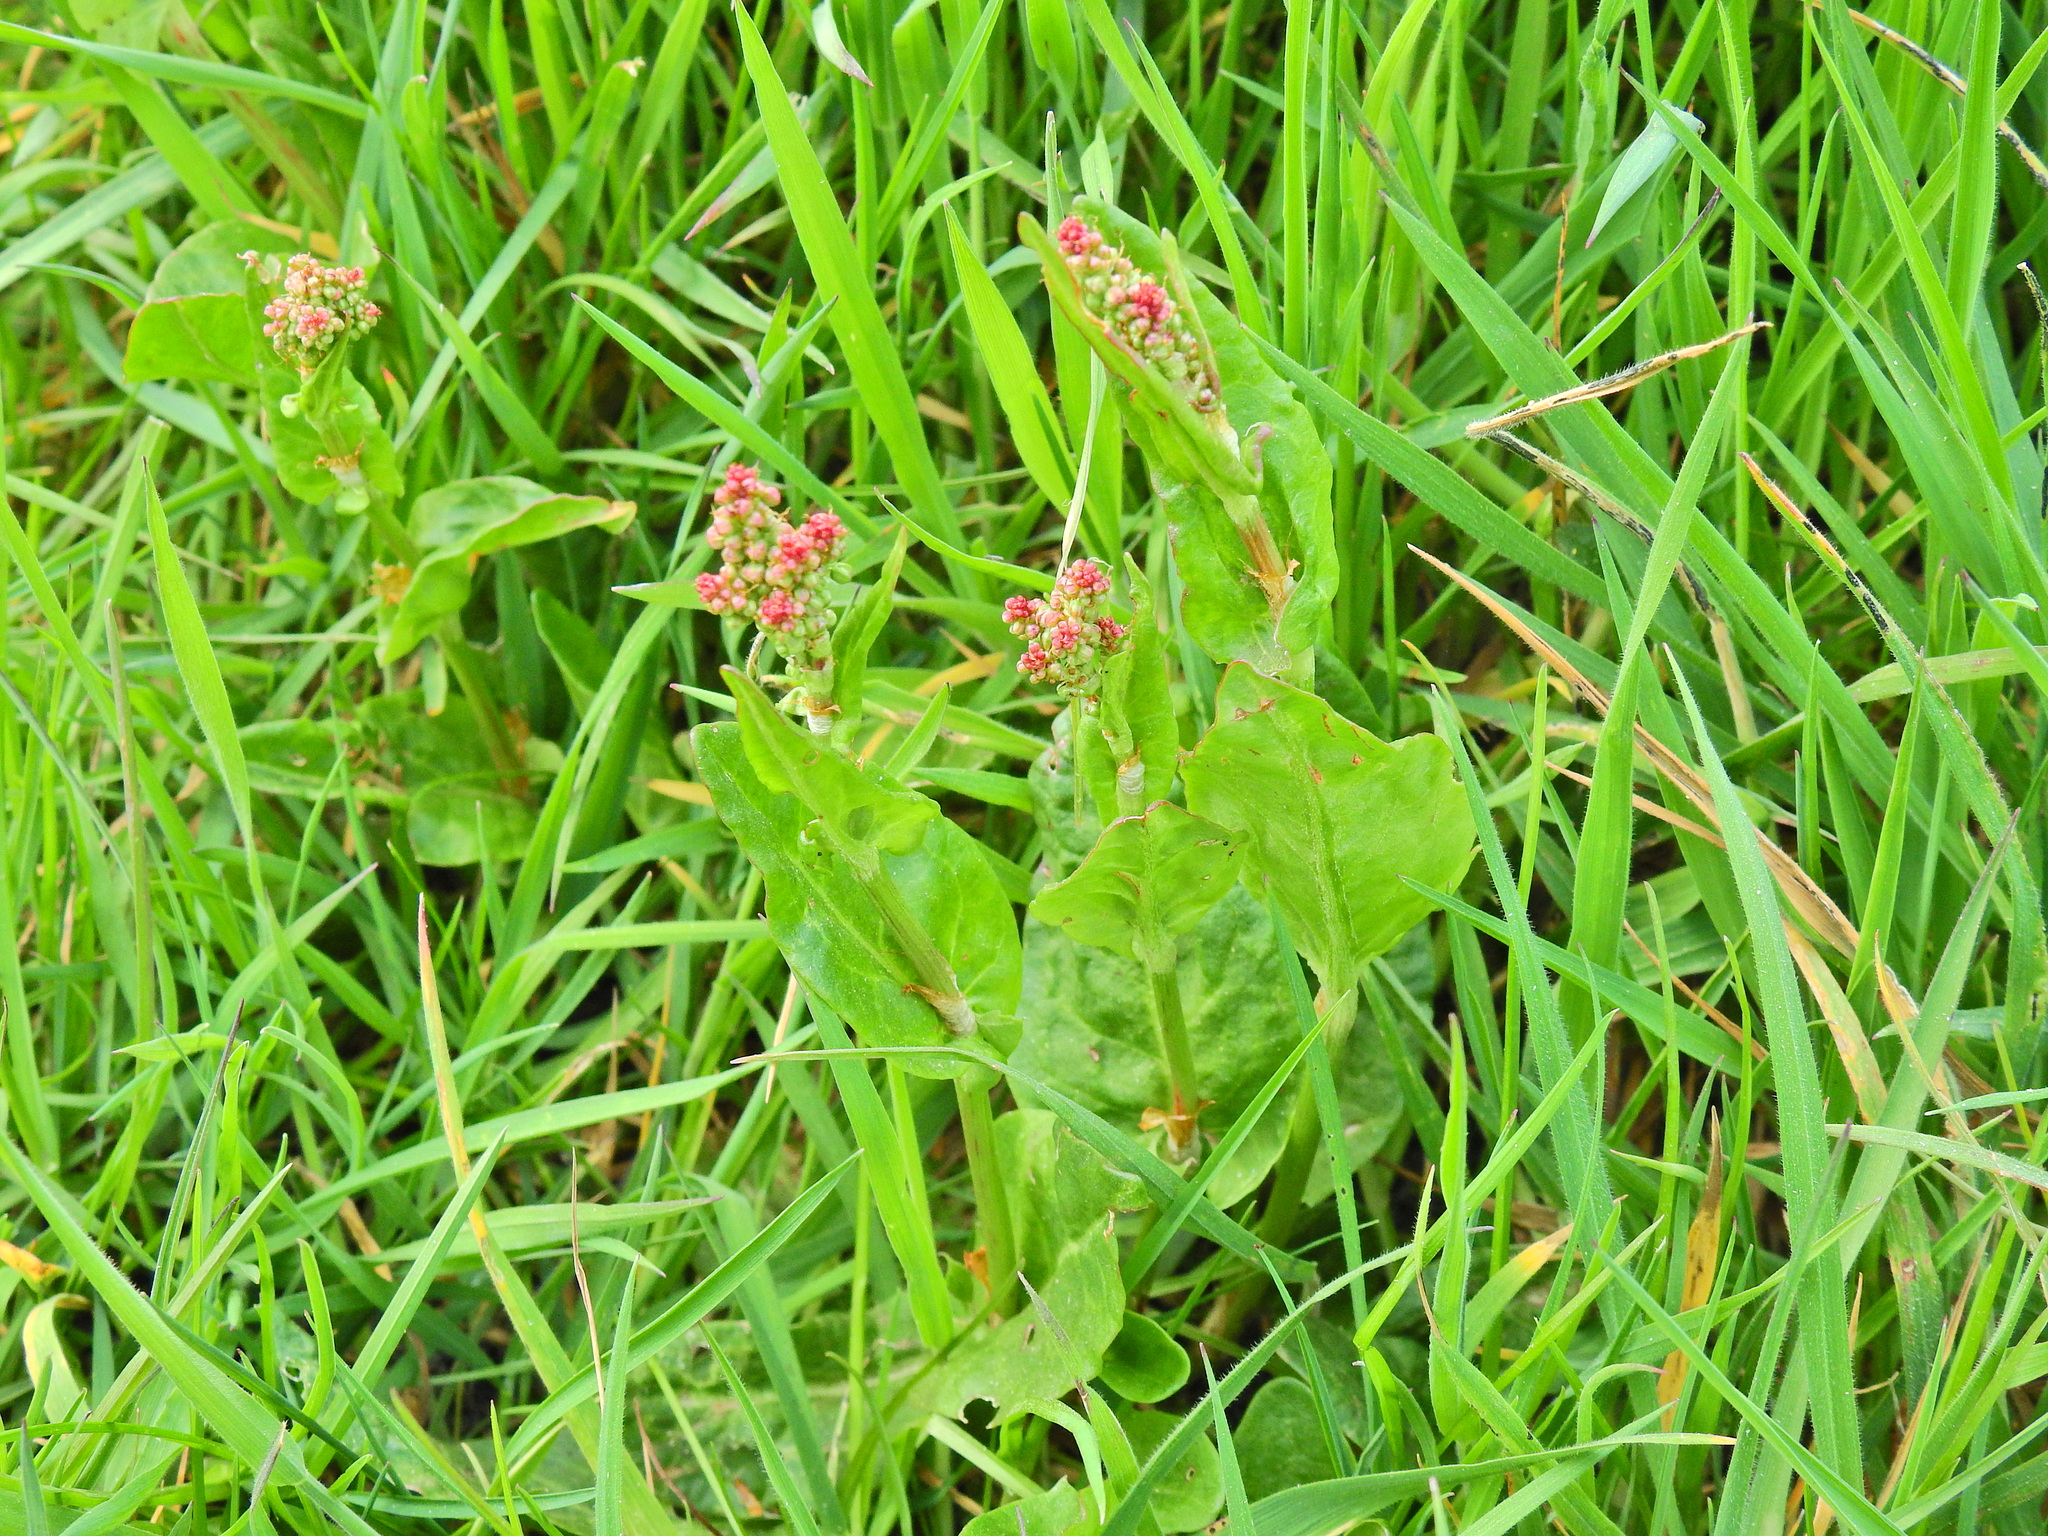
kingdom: Plantae
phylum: Tracheophyta
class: Magnoliopsida
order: Caryophyllales
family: Polygonaceae
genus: Rumex
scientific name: Rumex acetosa
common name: Garden sorrel
